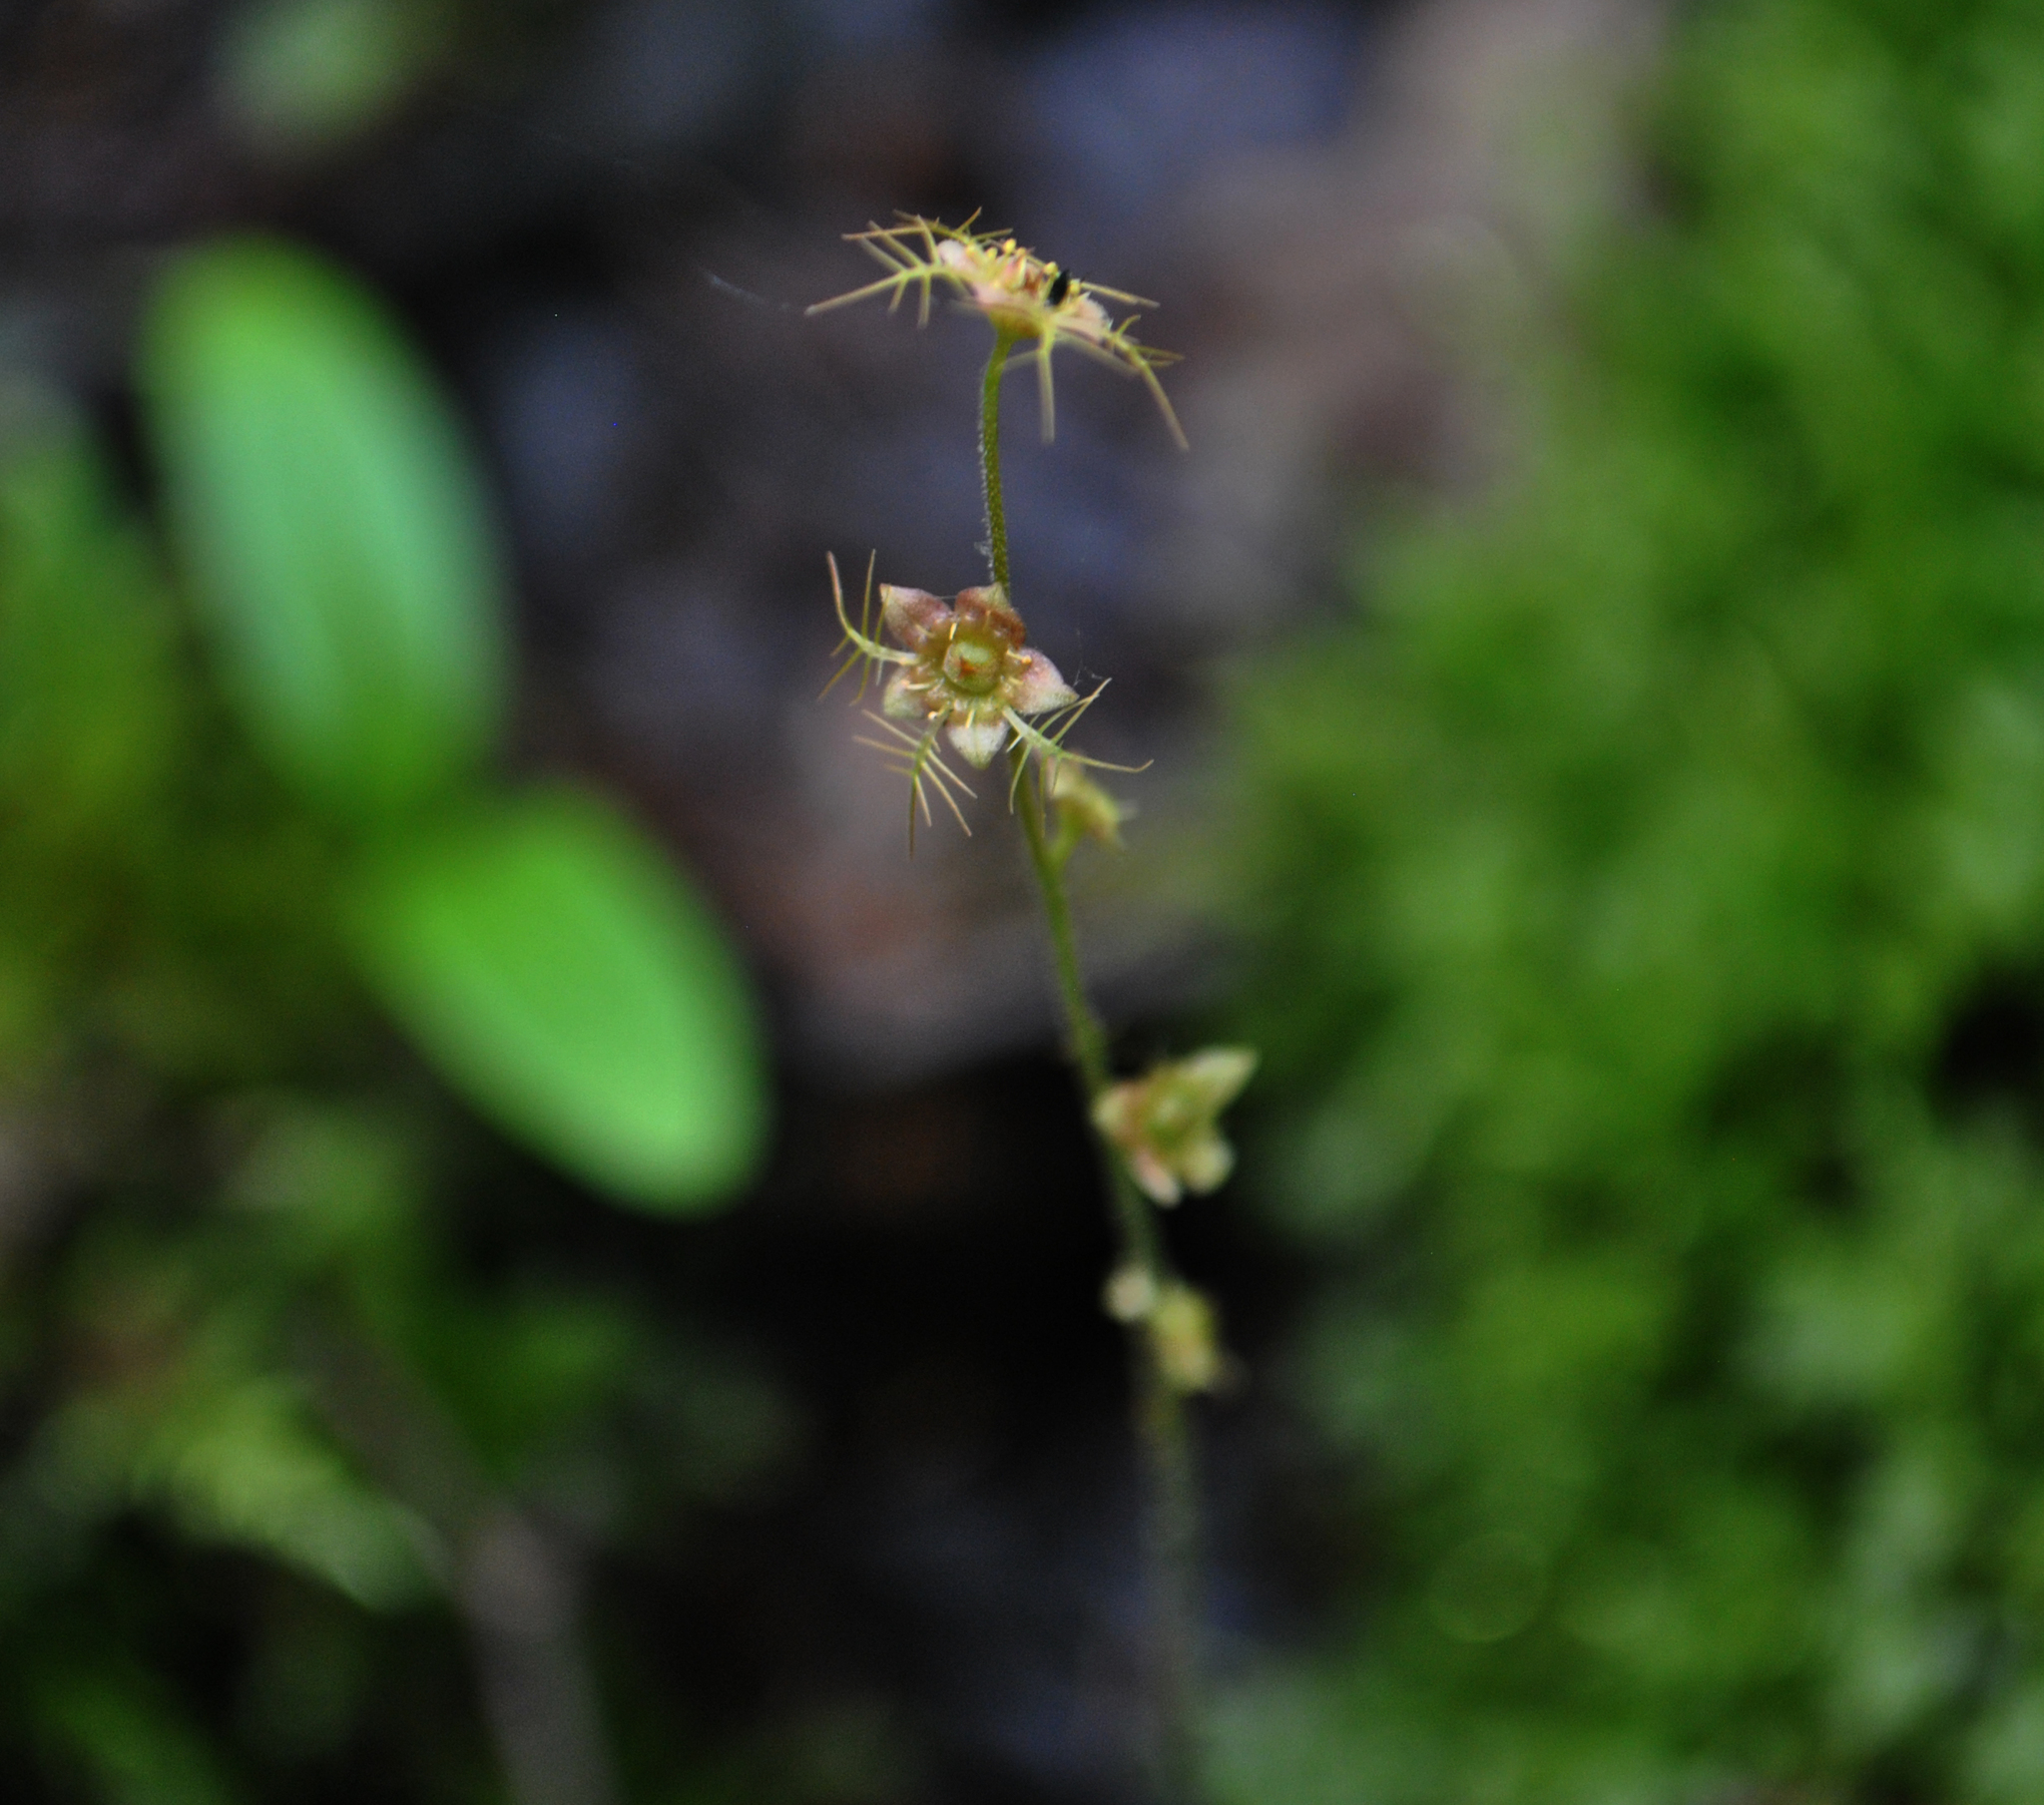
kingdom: Plantae
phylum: Tracheophyta
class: Magnoliopsida
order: Saxifragales
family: Saxifragaceae
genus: Mitella
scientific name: Mitella nuda
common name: Bare-stemmed bishop's-cap
